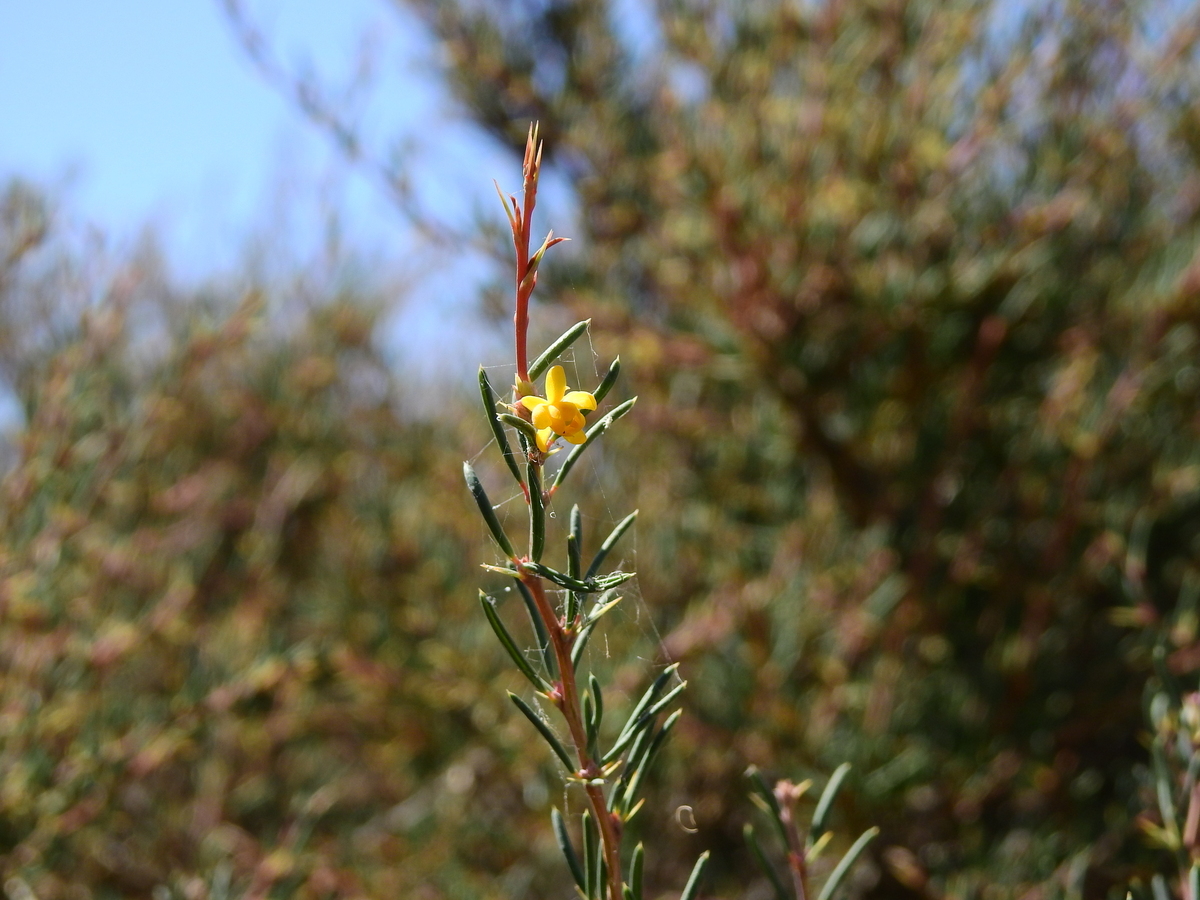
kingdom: Plantae
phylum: Tracheophyta
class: Magnoliopsida
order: Ranunculales
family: Berberidaceae
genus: Berberis
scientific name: Berberis empetrifolia
